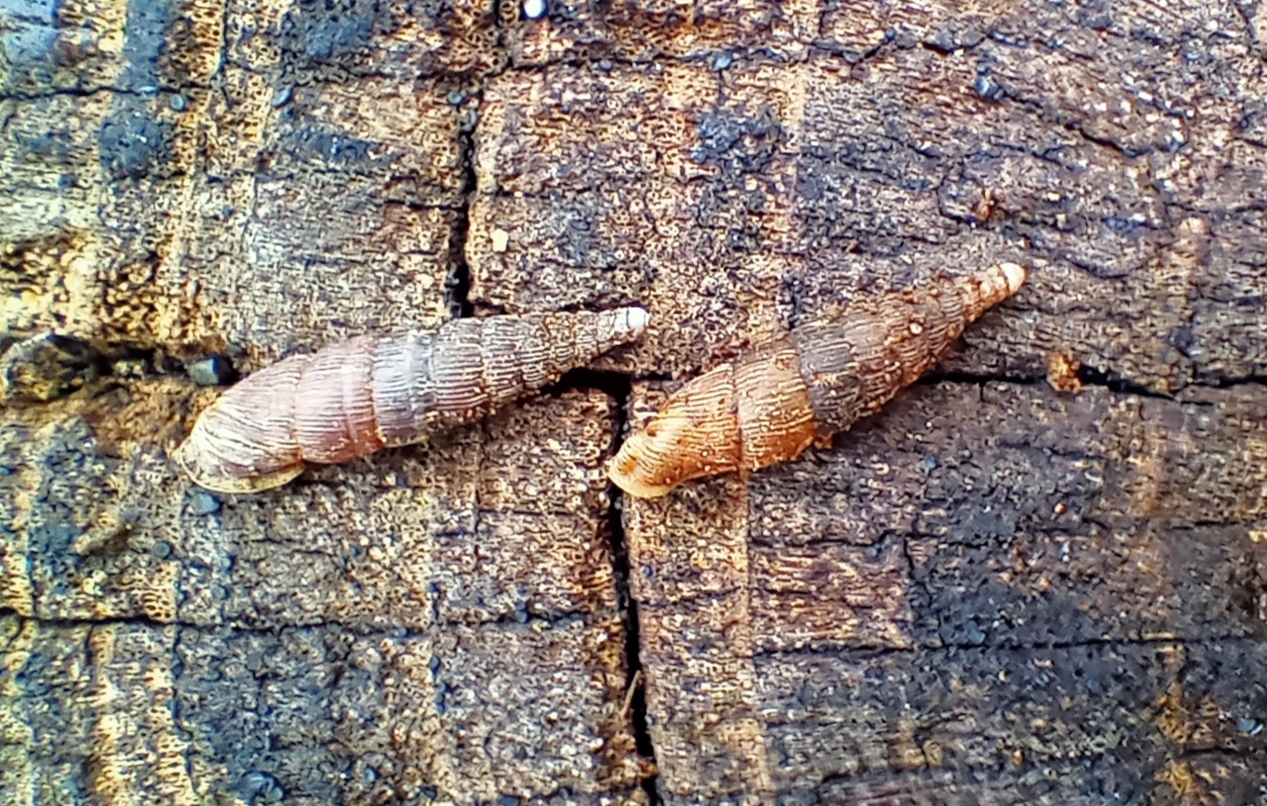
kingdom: Animalia
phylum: Mollusca
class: Gastropoda
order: Stylommatophora
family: Clausiliidae
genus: Alinda
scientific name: Alinda biplicata
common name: Thames door snail
